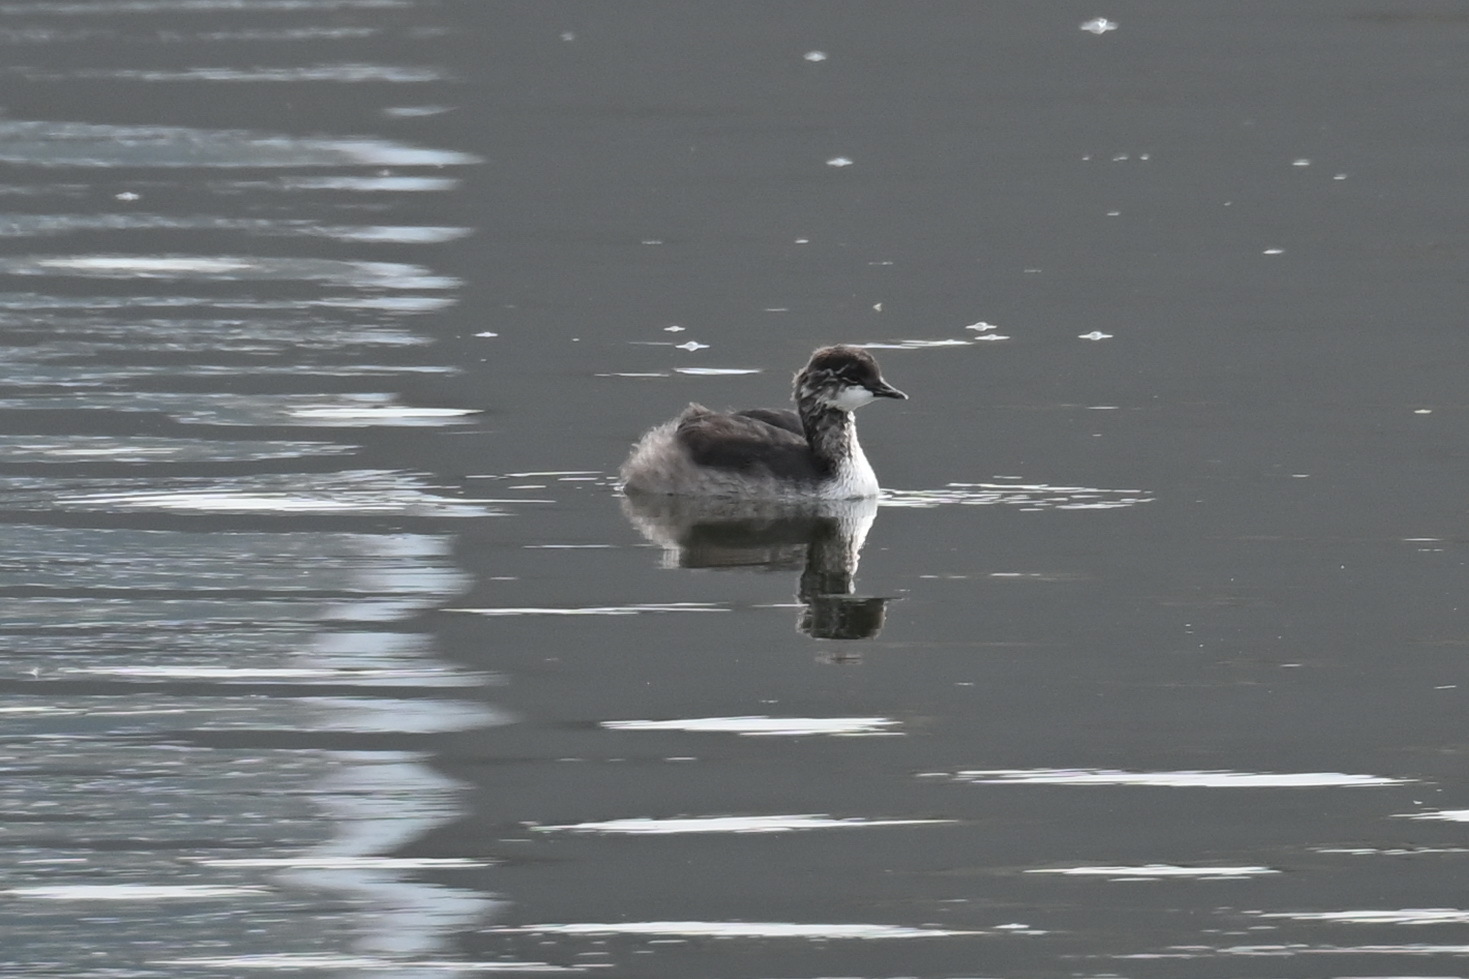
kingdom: Animalia
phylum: Chordata
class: Aves
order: Podicipediformes
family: Podicipedidae
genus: Podiceps
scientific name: Podiceps nigricollis
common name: Black-necked grebe
